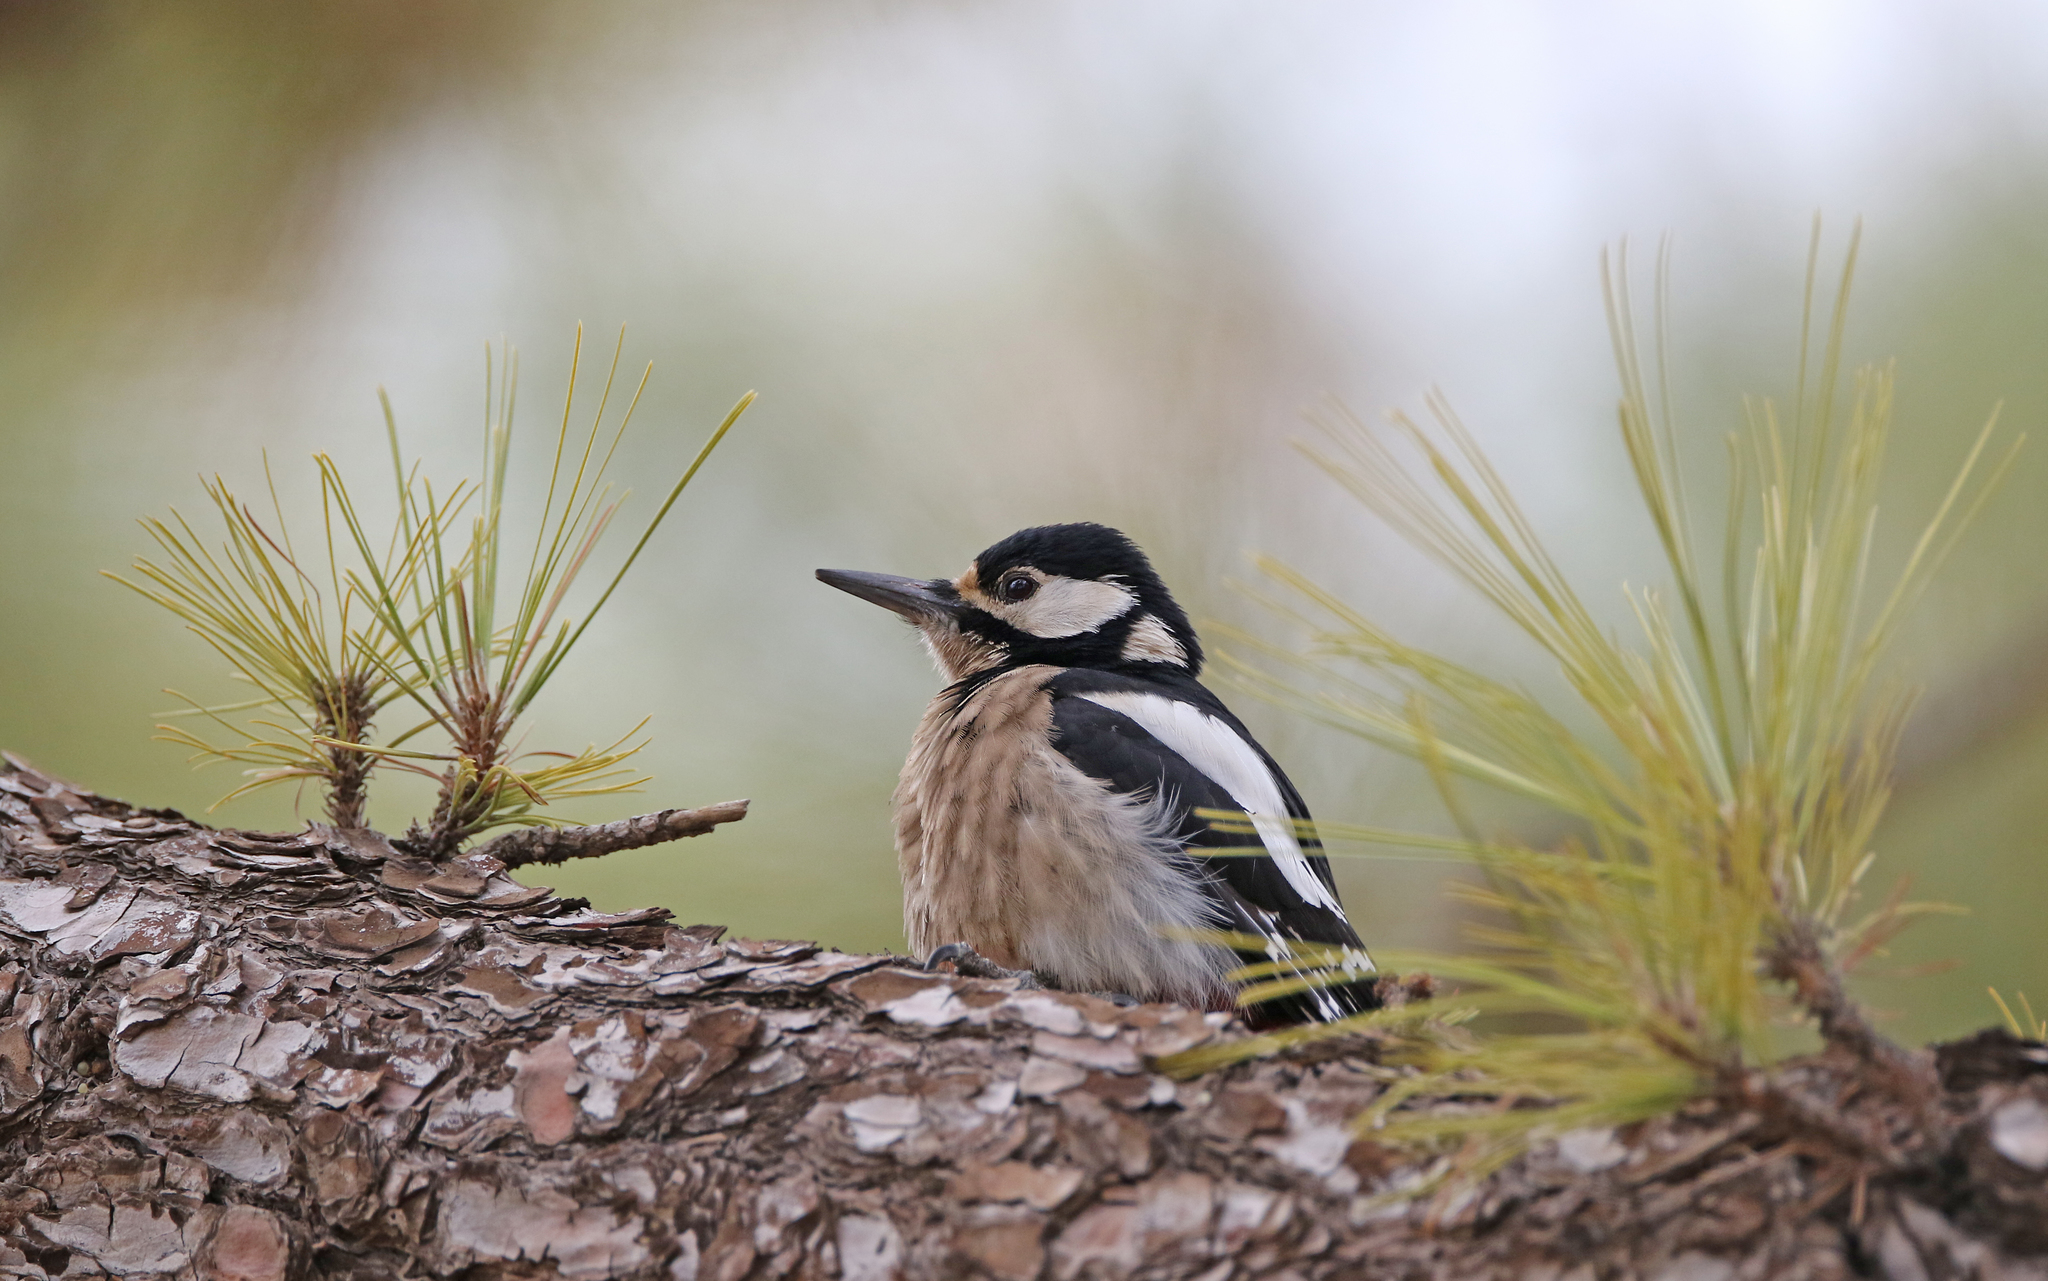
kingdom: Animalia
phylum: Chordata
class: Aves
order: Piciformes
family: Picidae
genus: Dendrocopos
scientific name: Dendrocopos major
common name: Great spotted woodpecker
